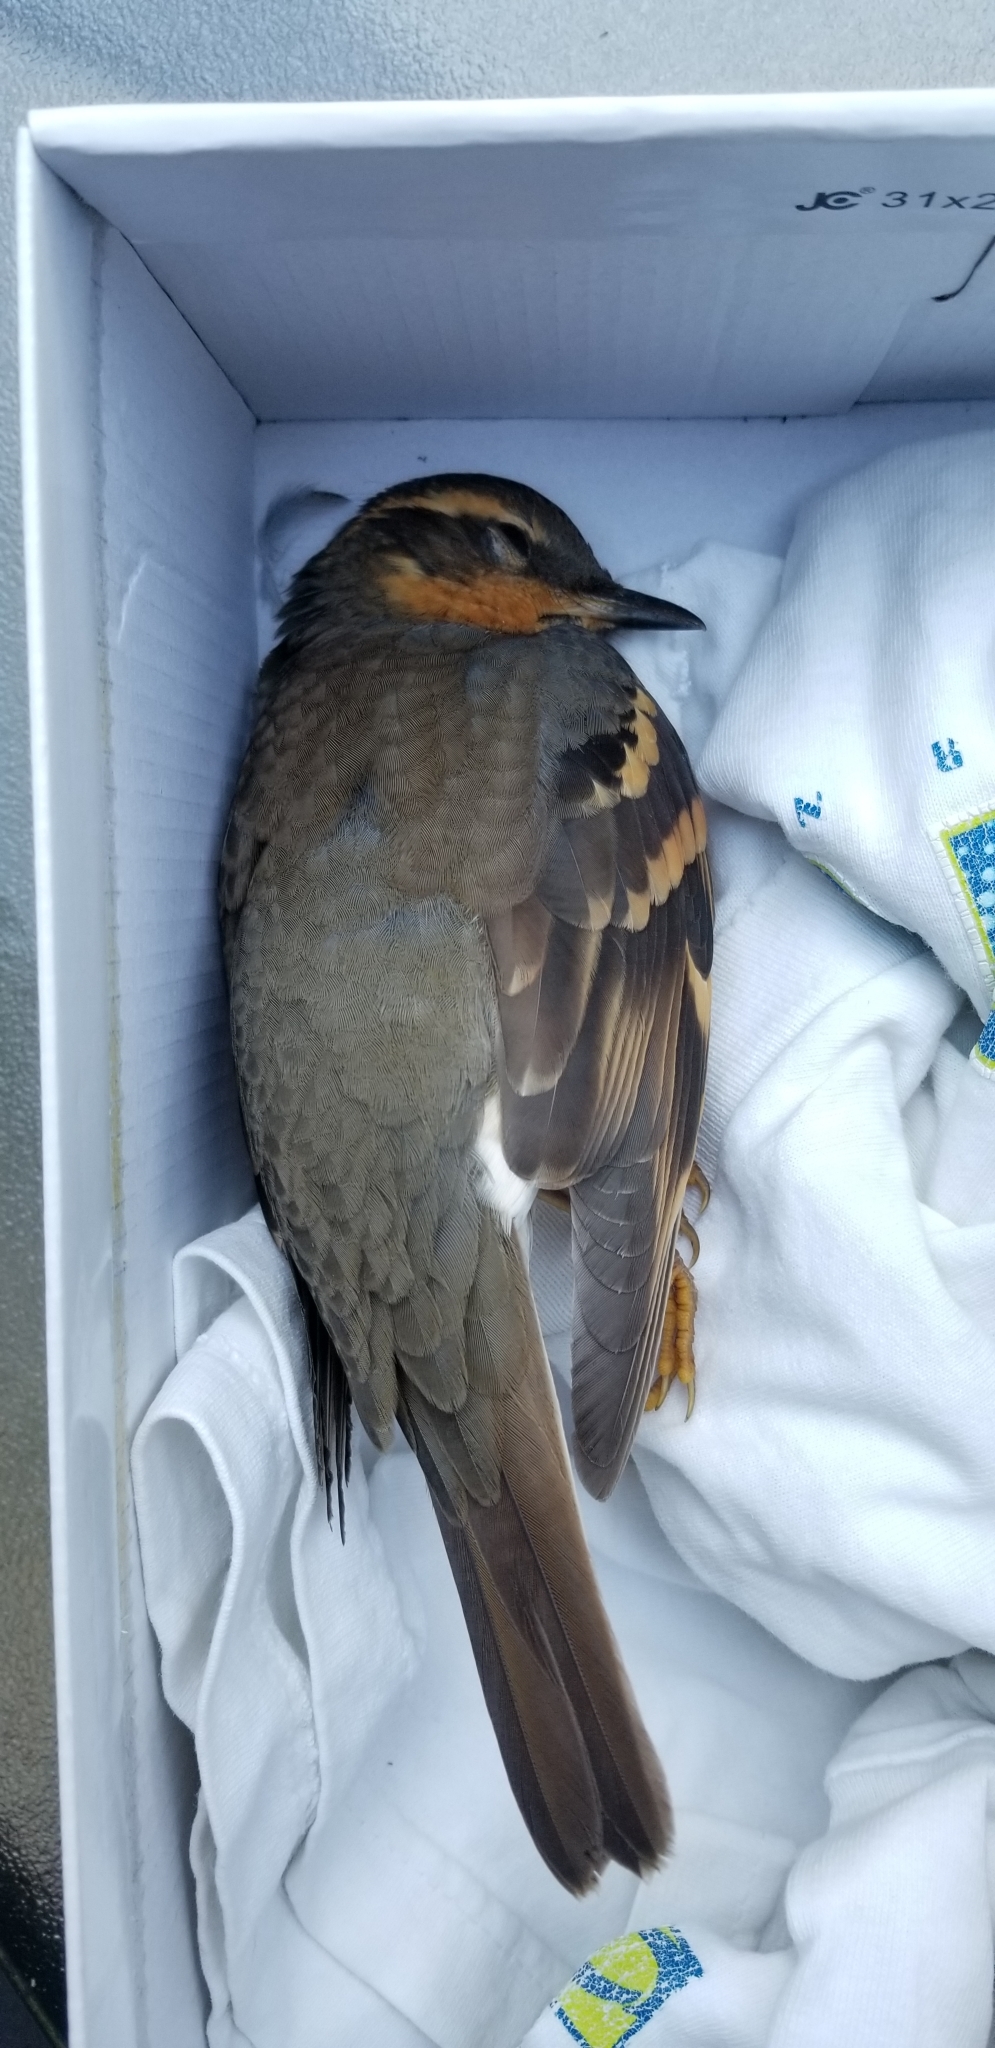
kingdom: Animalia
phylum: Chordata
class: Aves
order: Passeriformes
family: Turdidae
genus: Ixoreus
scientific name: Ixoreus naevius
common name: Varied thrush
